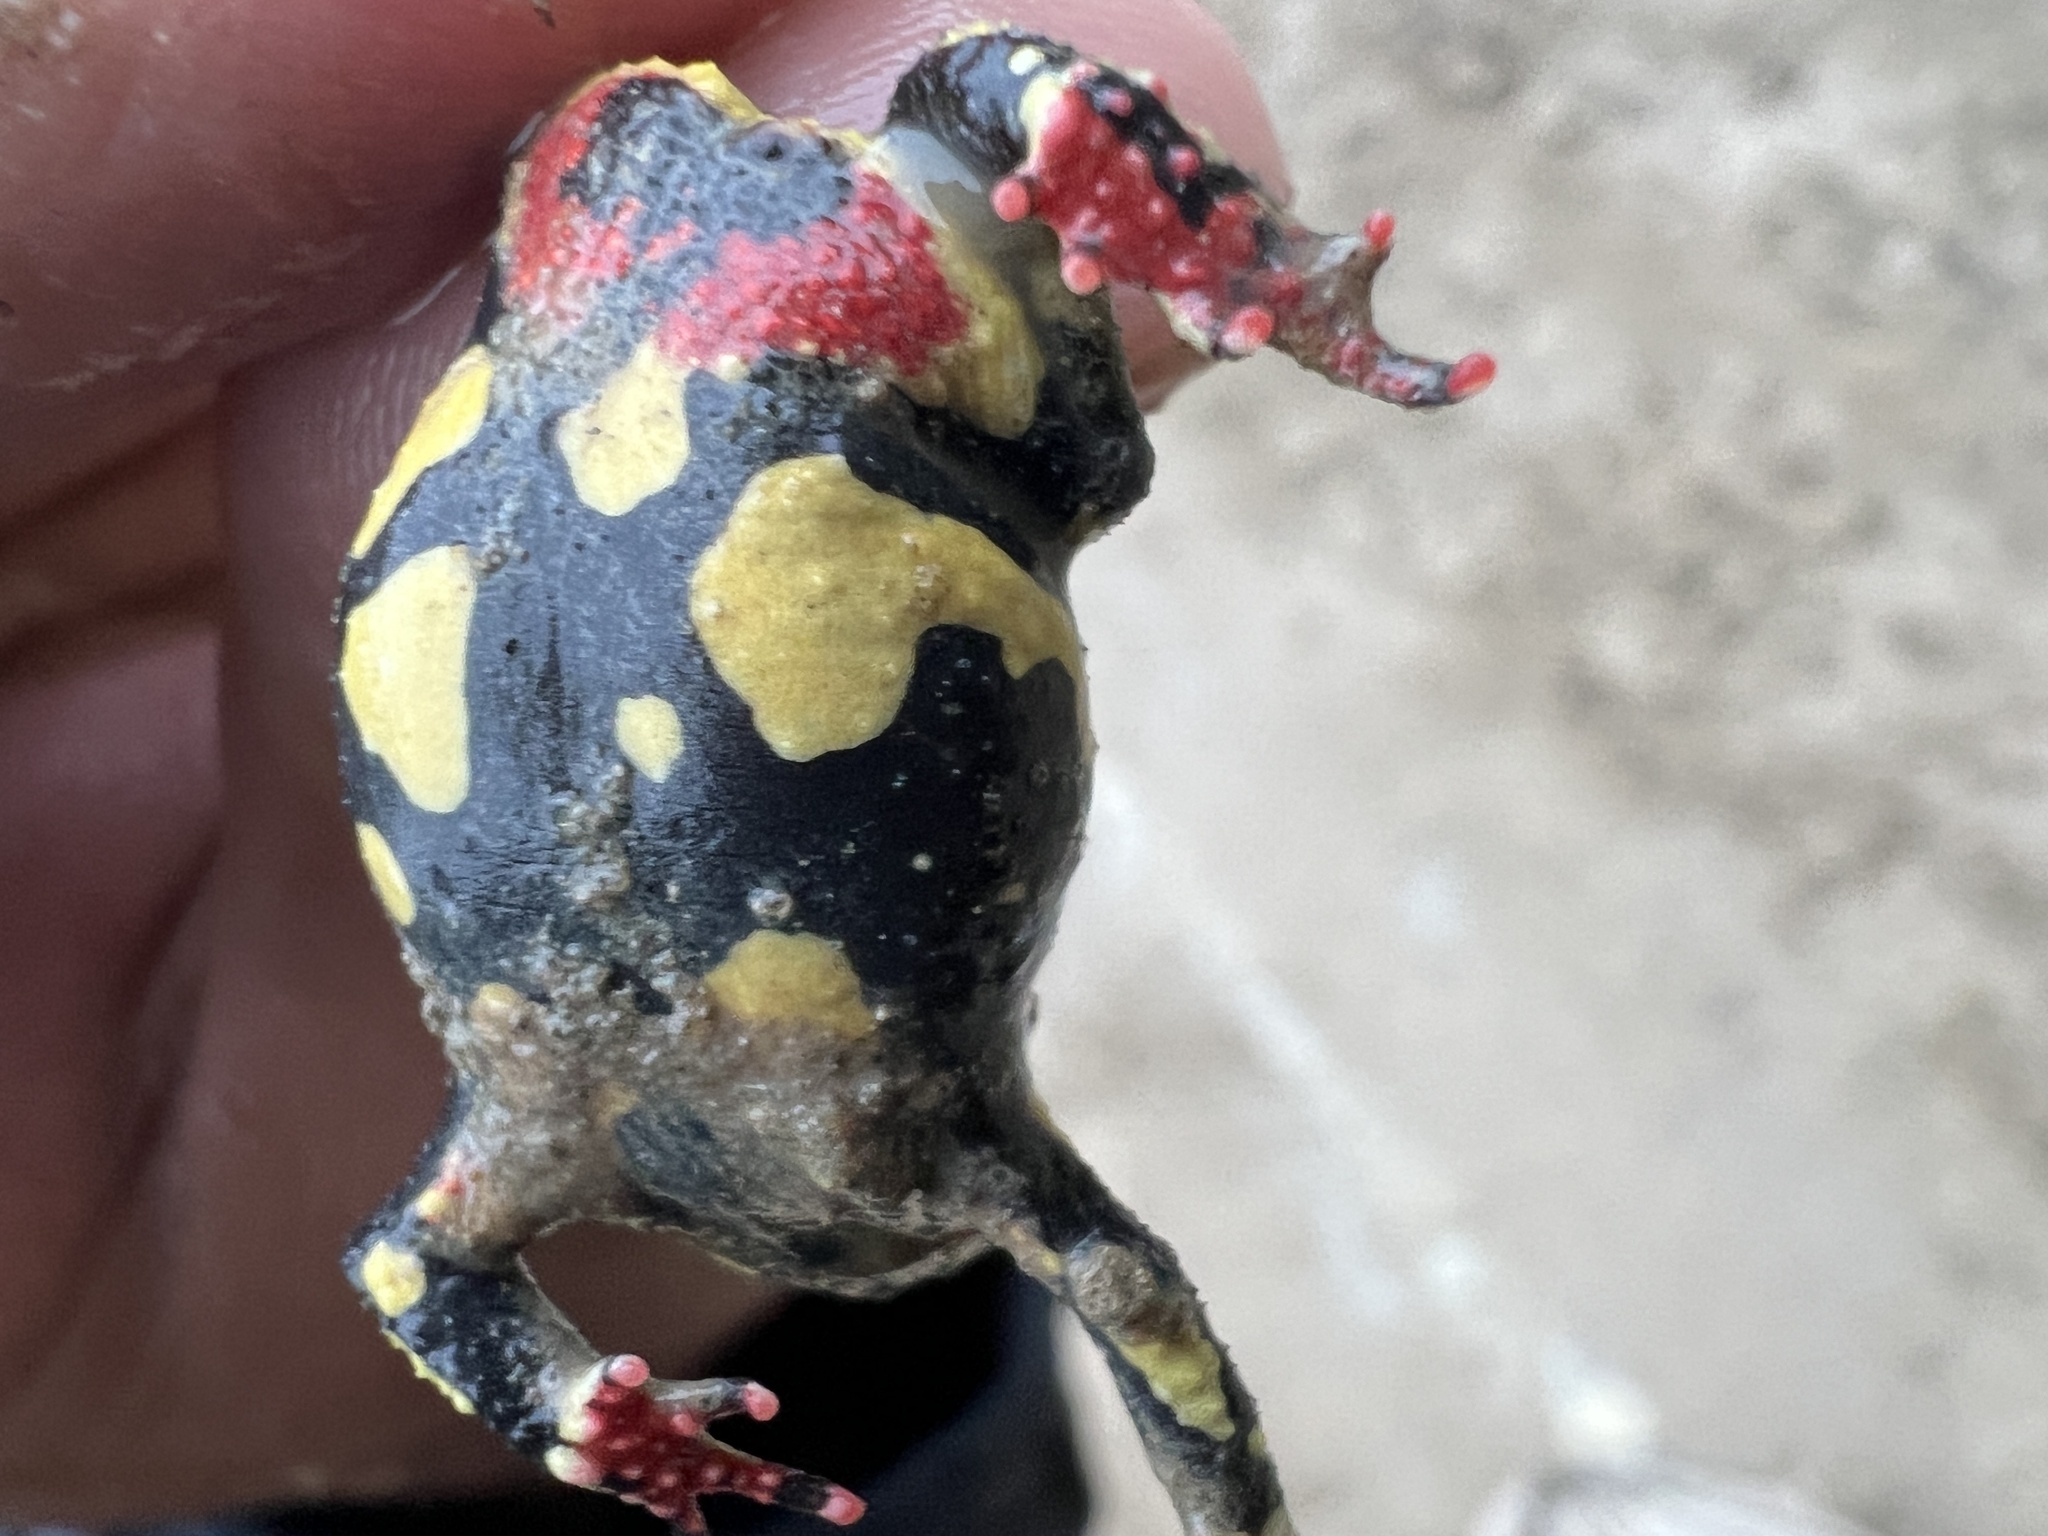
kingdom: Animalia
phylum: Chordata
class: Amphibia
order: Anura
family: Bufonidae
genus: Melanophryniscus
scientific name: Melanophryniscus klappenbachi
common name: Klappenbach’s red-bellied toad
